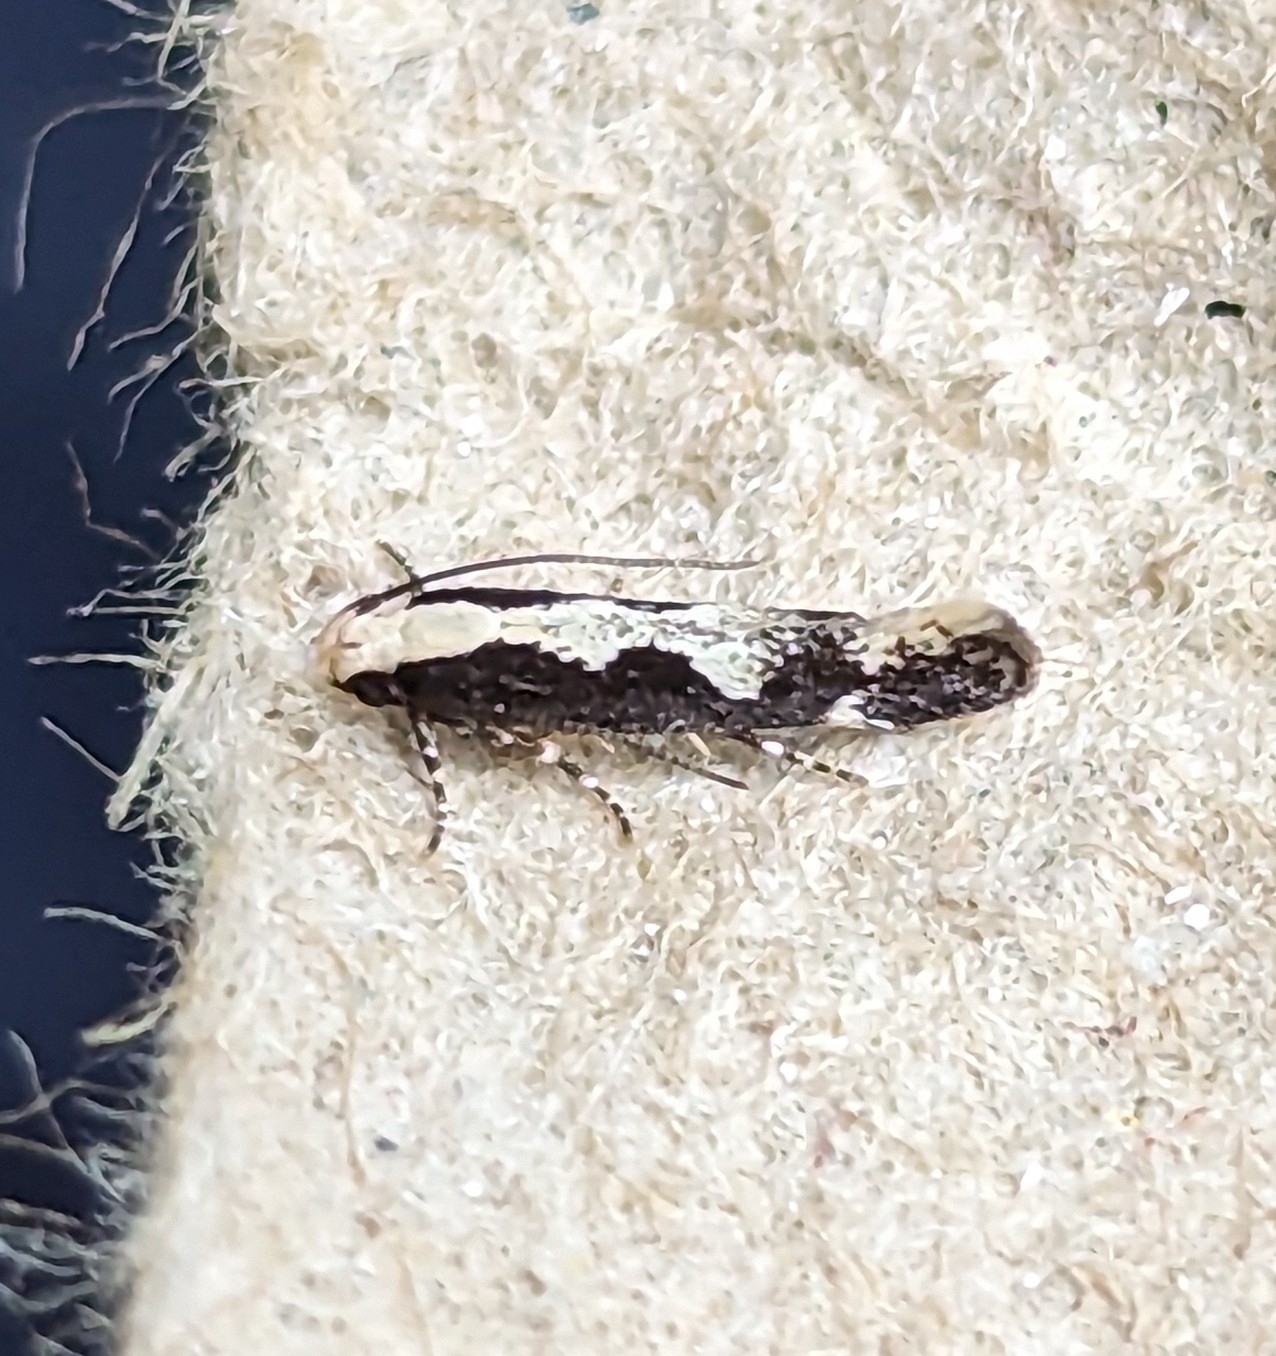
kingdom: Animalia
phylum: Arthropoda
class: Insecta
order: Lepidoptera
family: Gelechiidae
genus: Agnippe
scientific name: Agnippe prunifoliella
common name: Skunk twirler
